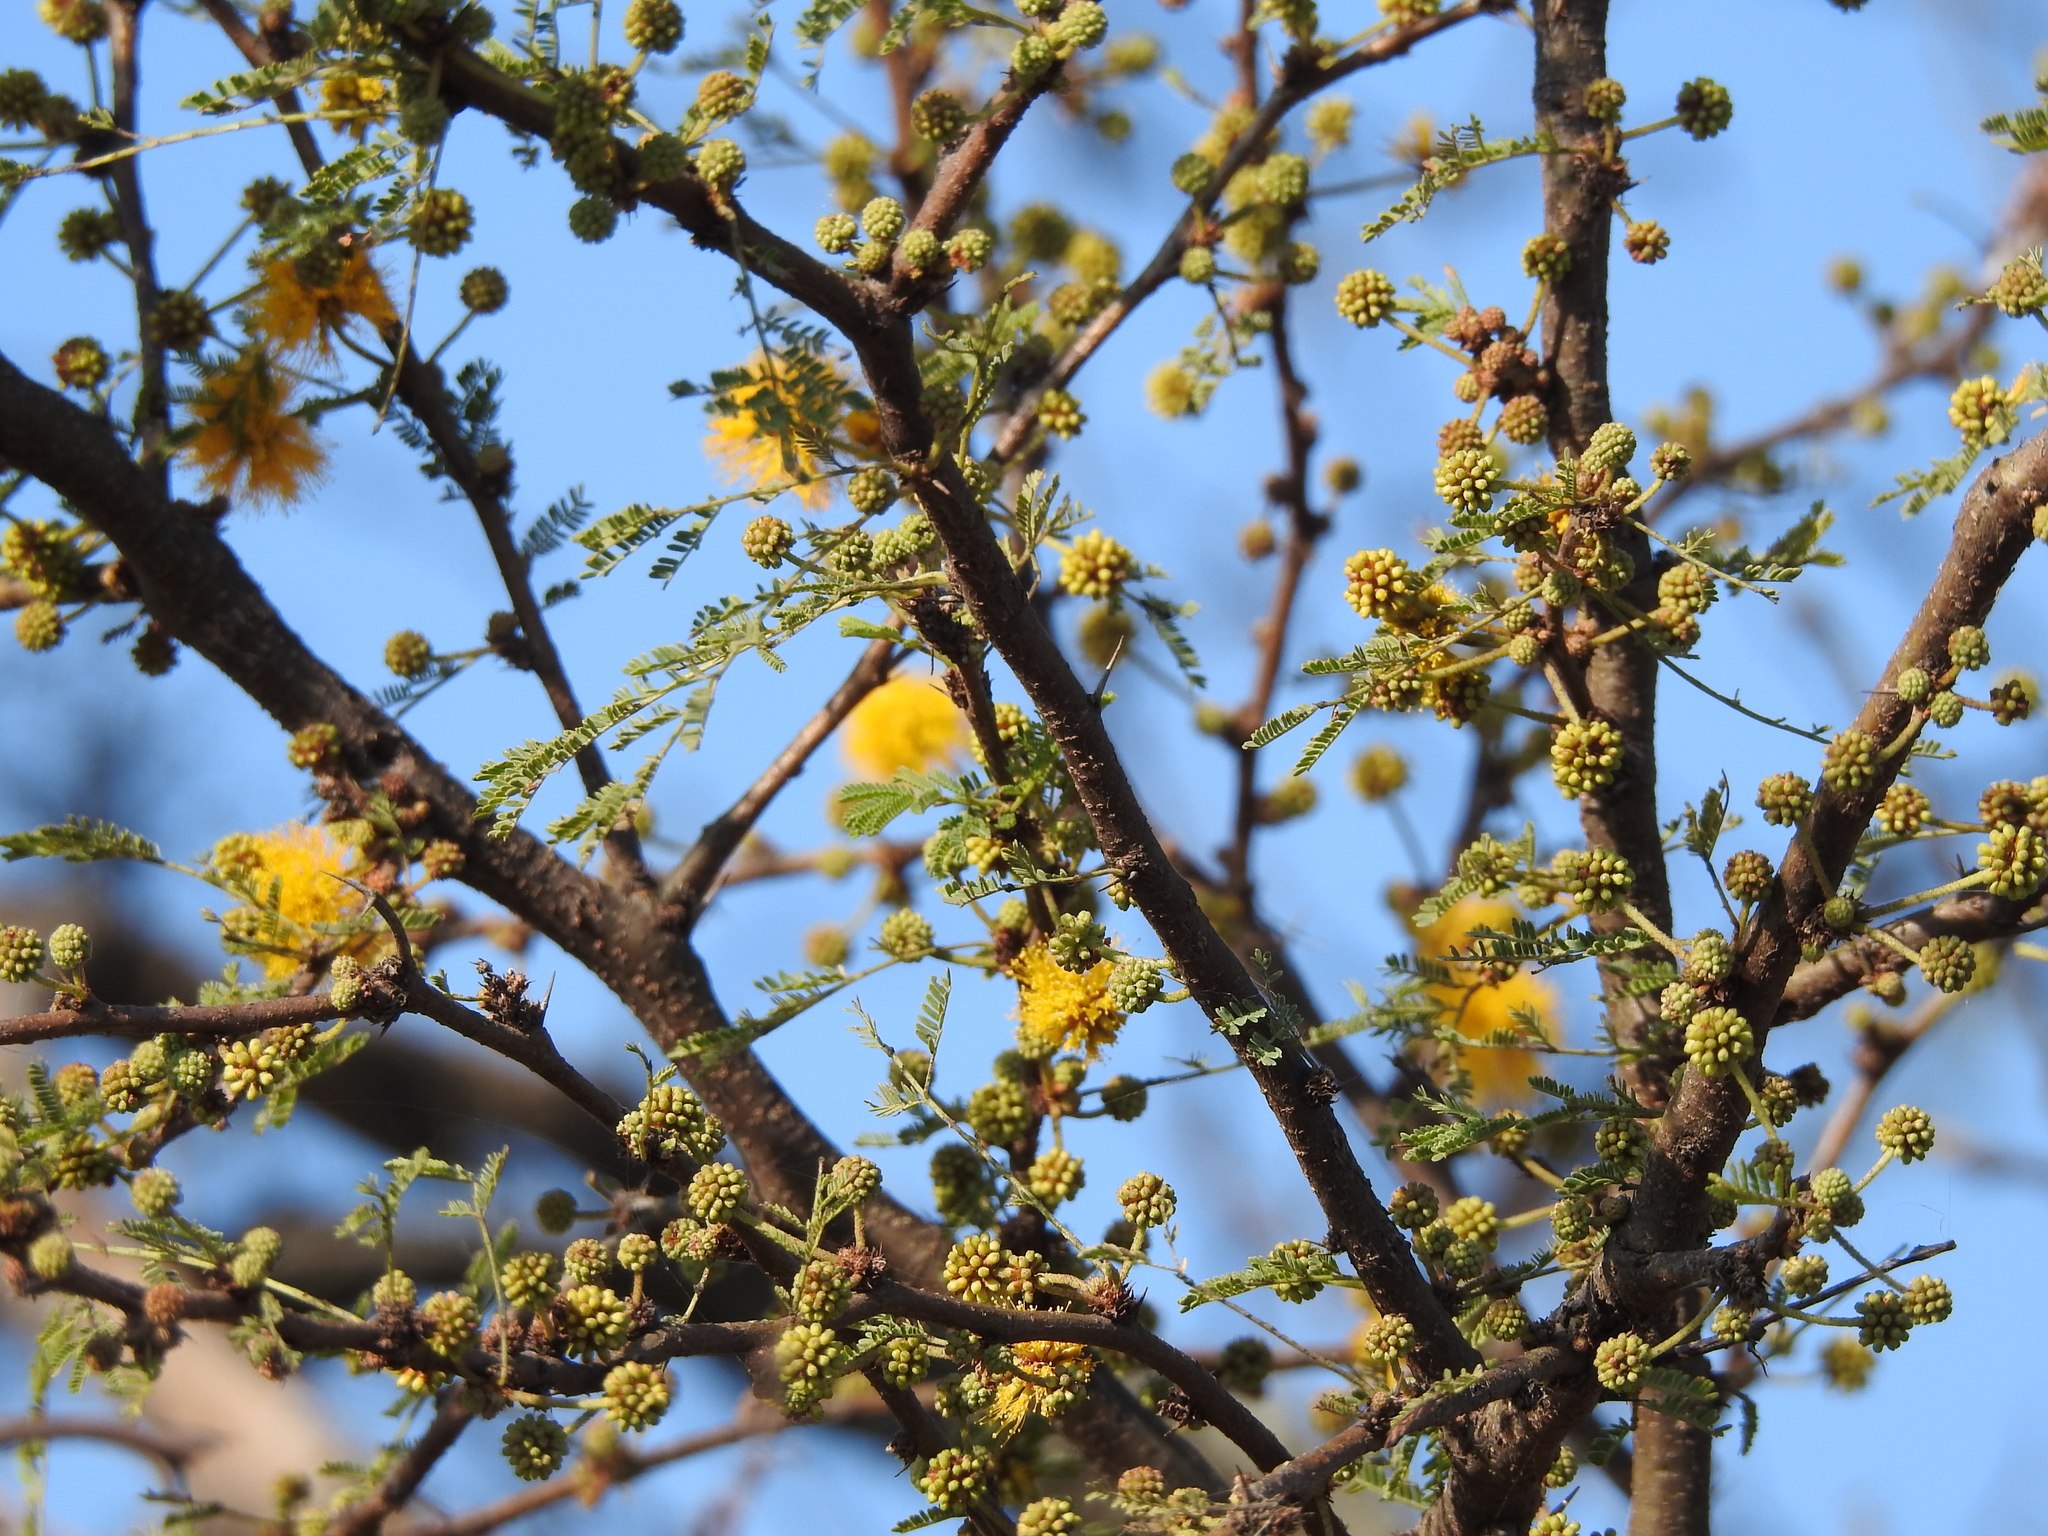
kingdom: Plantae
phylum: Tracheophyta
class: Magnoliopsida
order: Fabales
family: Fabaceae
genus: Vachellia
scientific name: Vachellia caven
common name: Roman cassie
